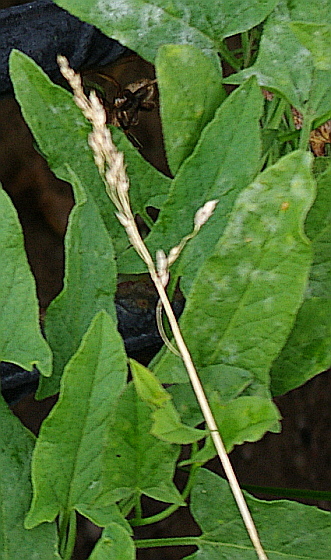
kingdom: Plantae
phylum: Tracheophyta
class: Liliopsida
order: Poales
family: Poaceae
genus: Dactylis
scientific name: Dactylis glomerata
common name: Orchardgrass
